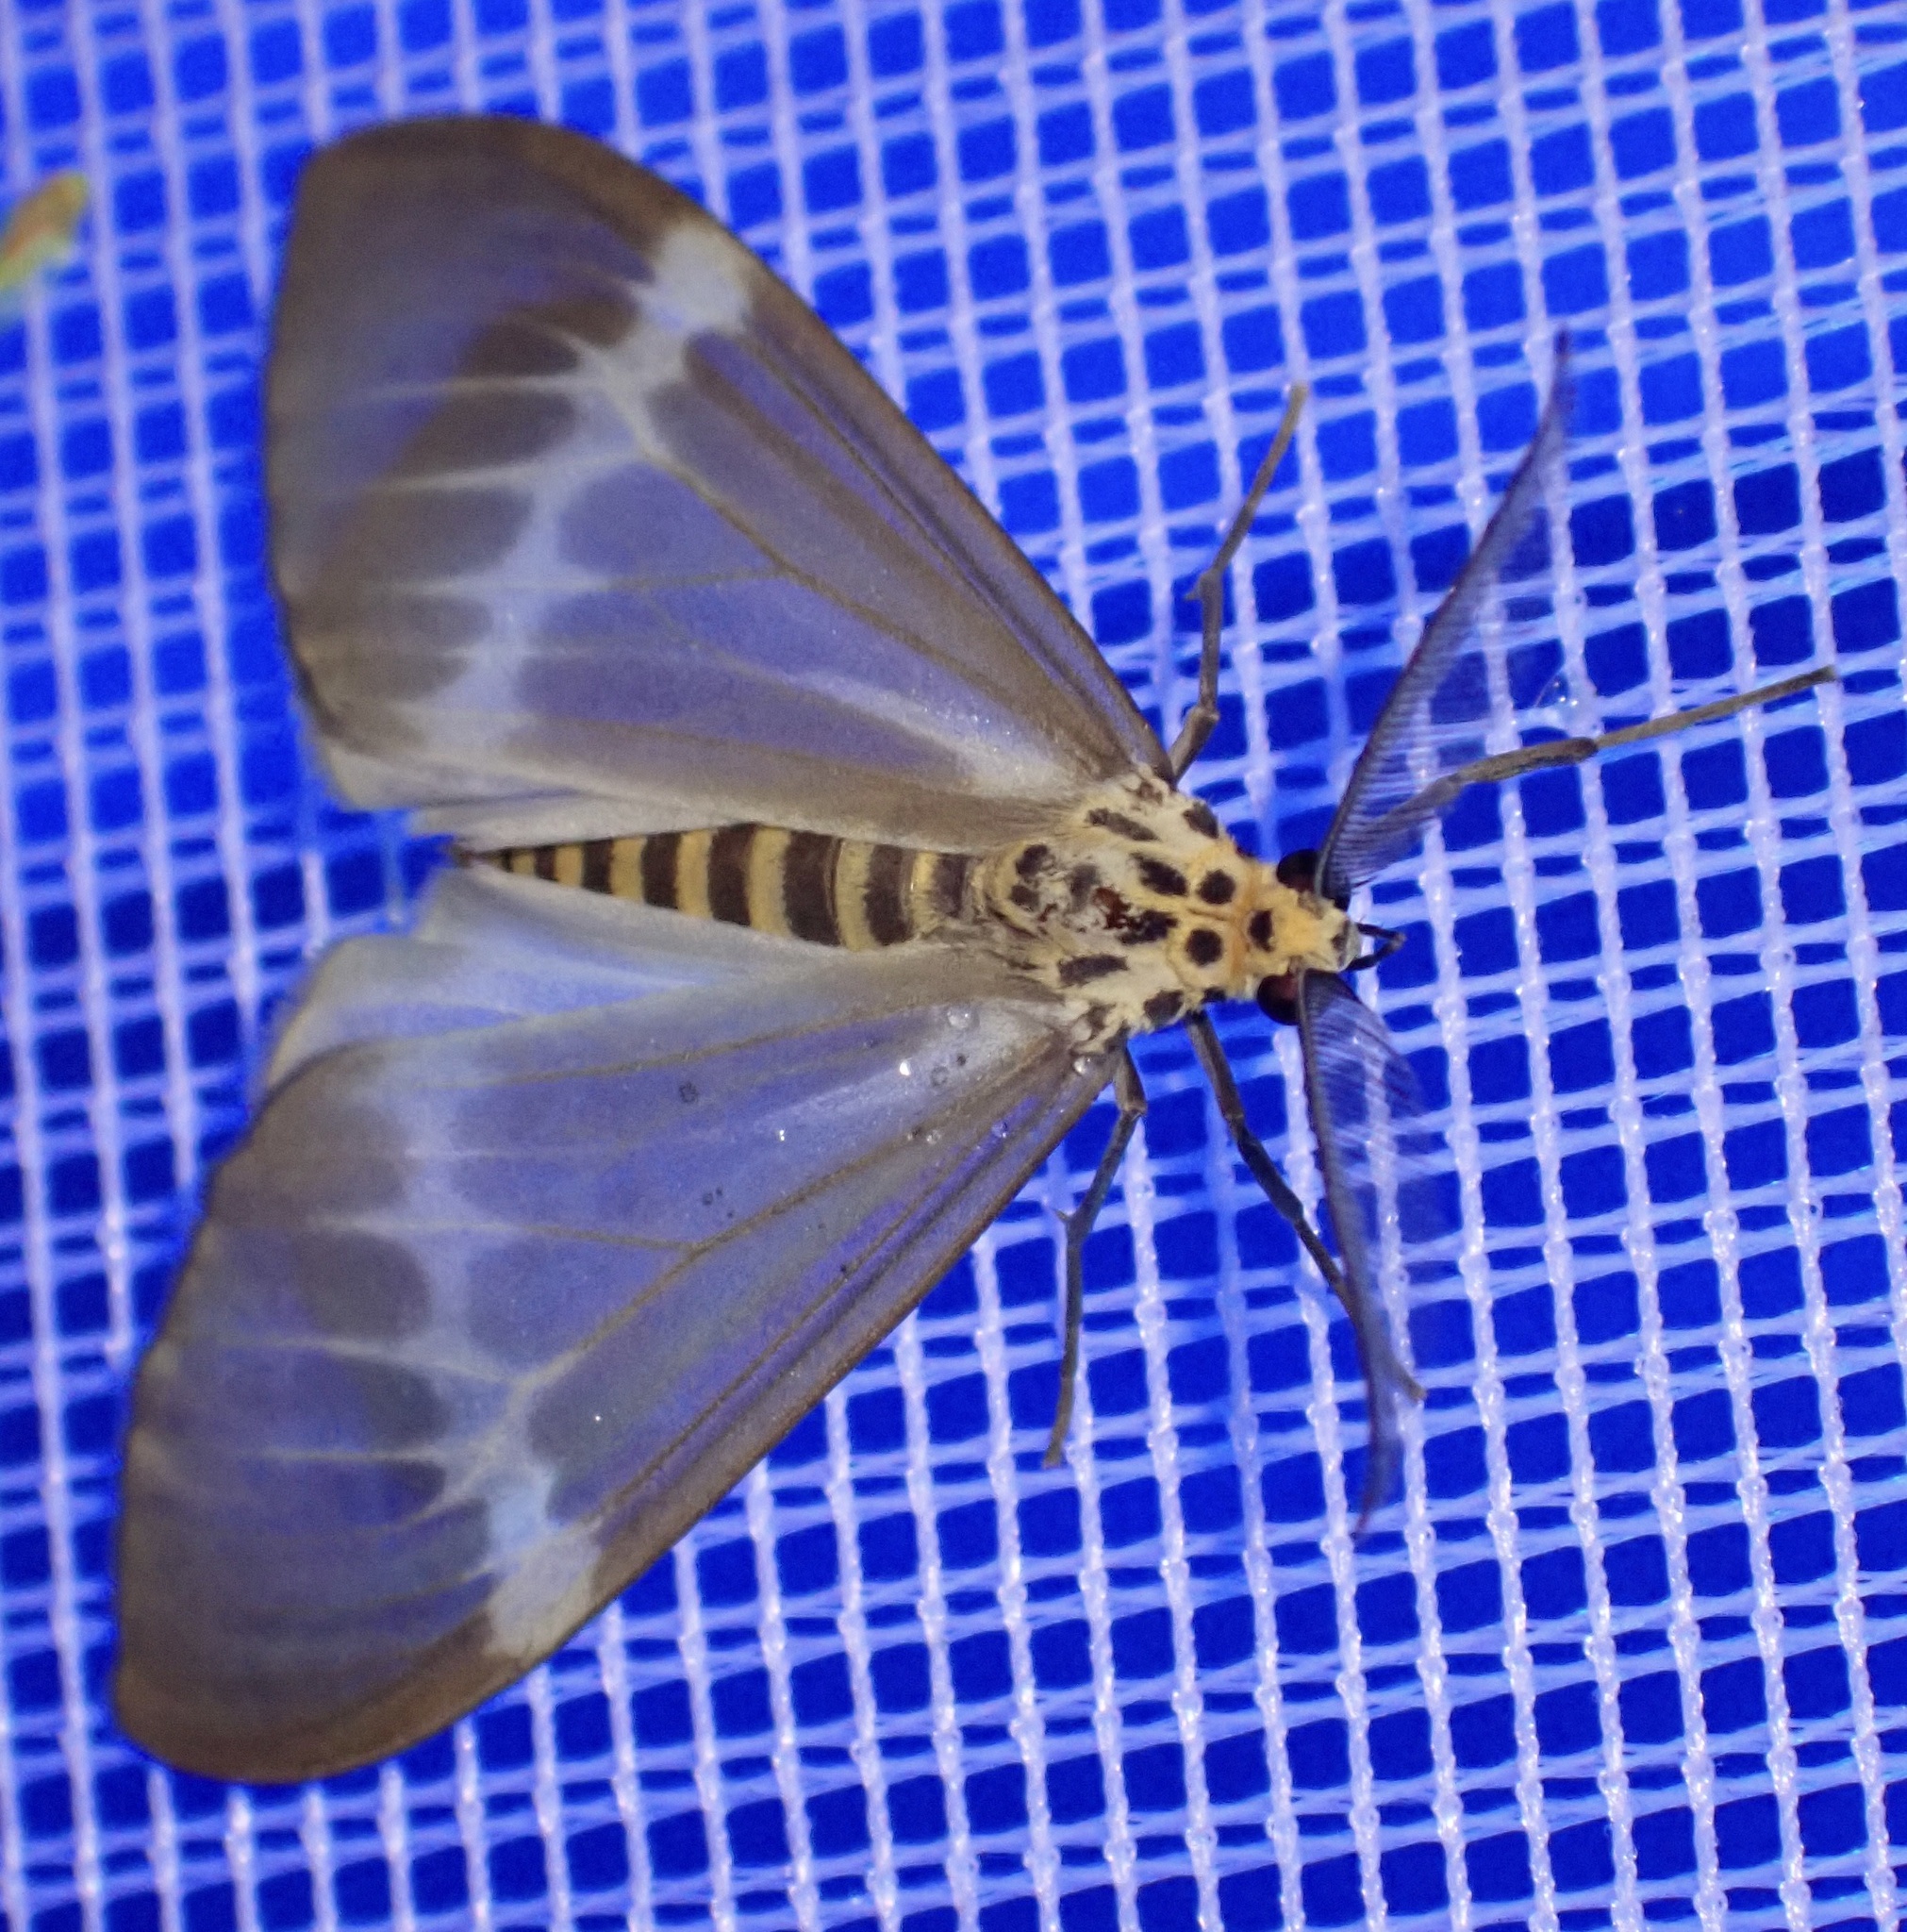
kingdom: Animalia
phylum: Arthropoda
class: Insecta
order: Lepidoptera
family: Erebidae
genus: Nyctemera
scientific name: Nyctemera hyalina
